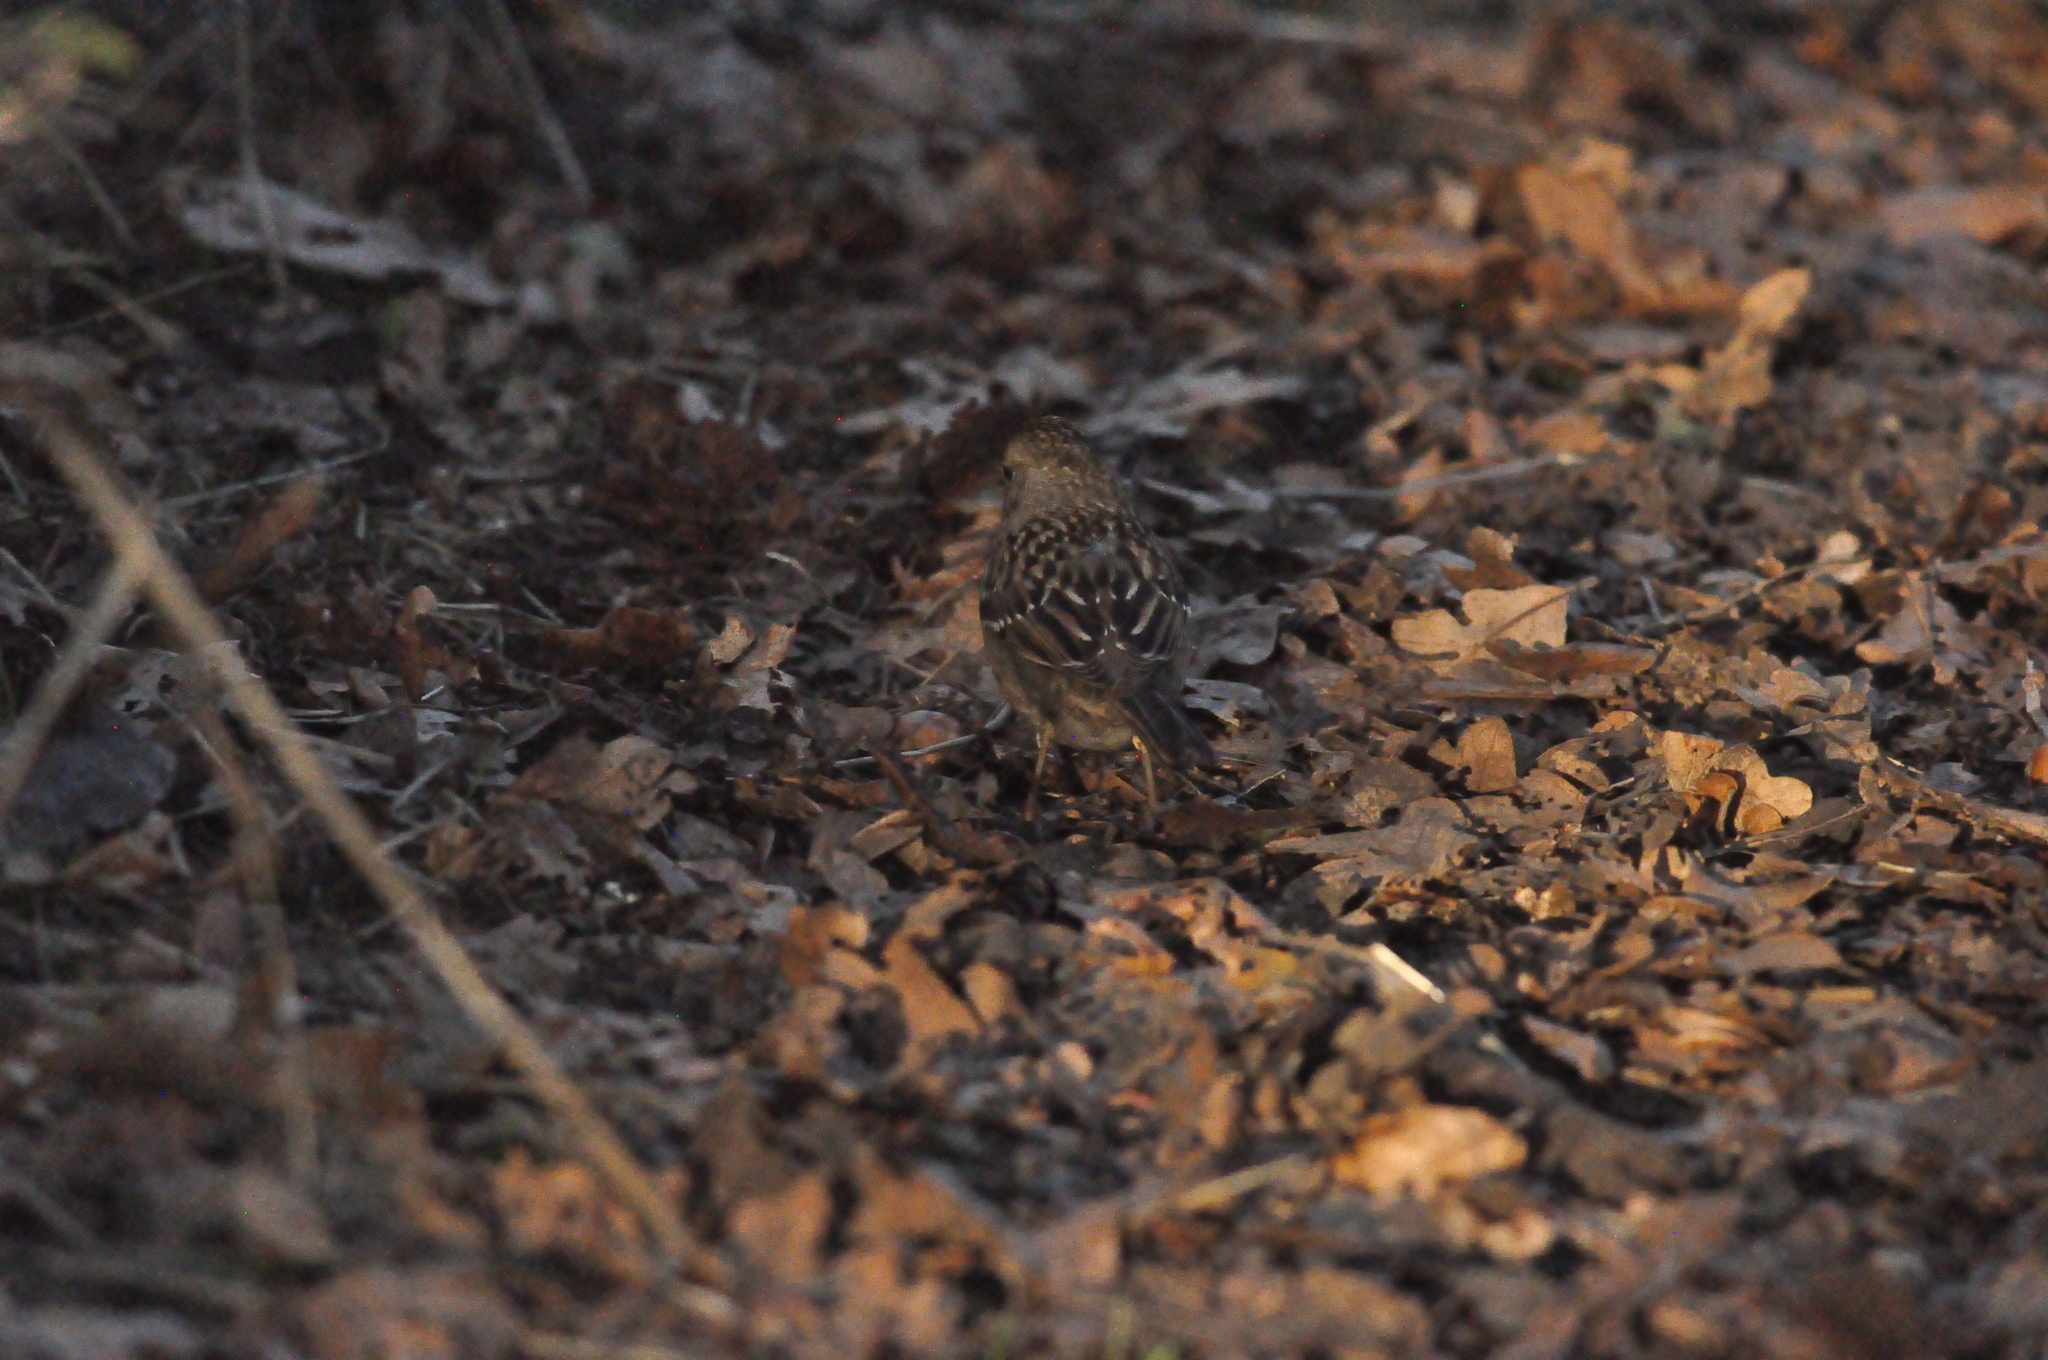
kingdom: Animalia
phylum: Chordata
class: Aves
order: Passeriformes
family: Passerellidae
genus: Zonotrichia
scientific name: Zonotrichia atricapilla
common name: Golden-crowned sparrow
